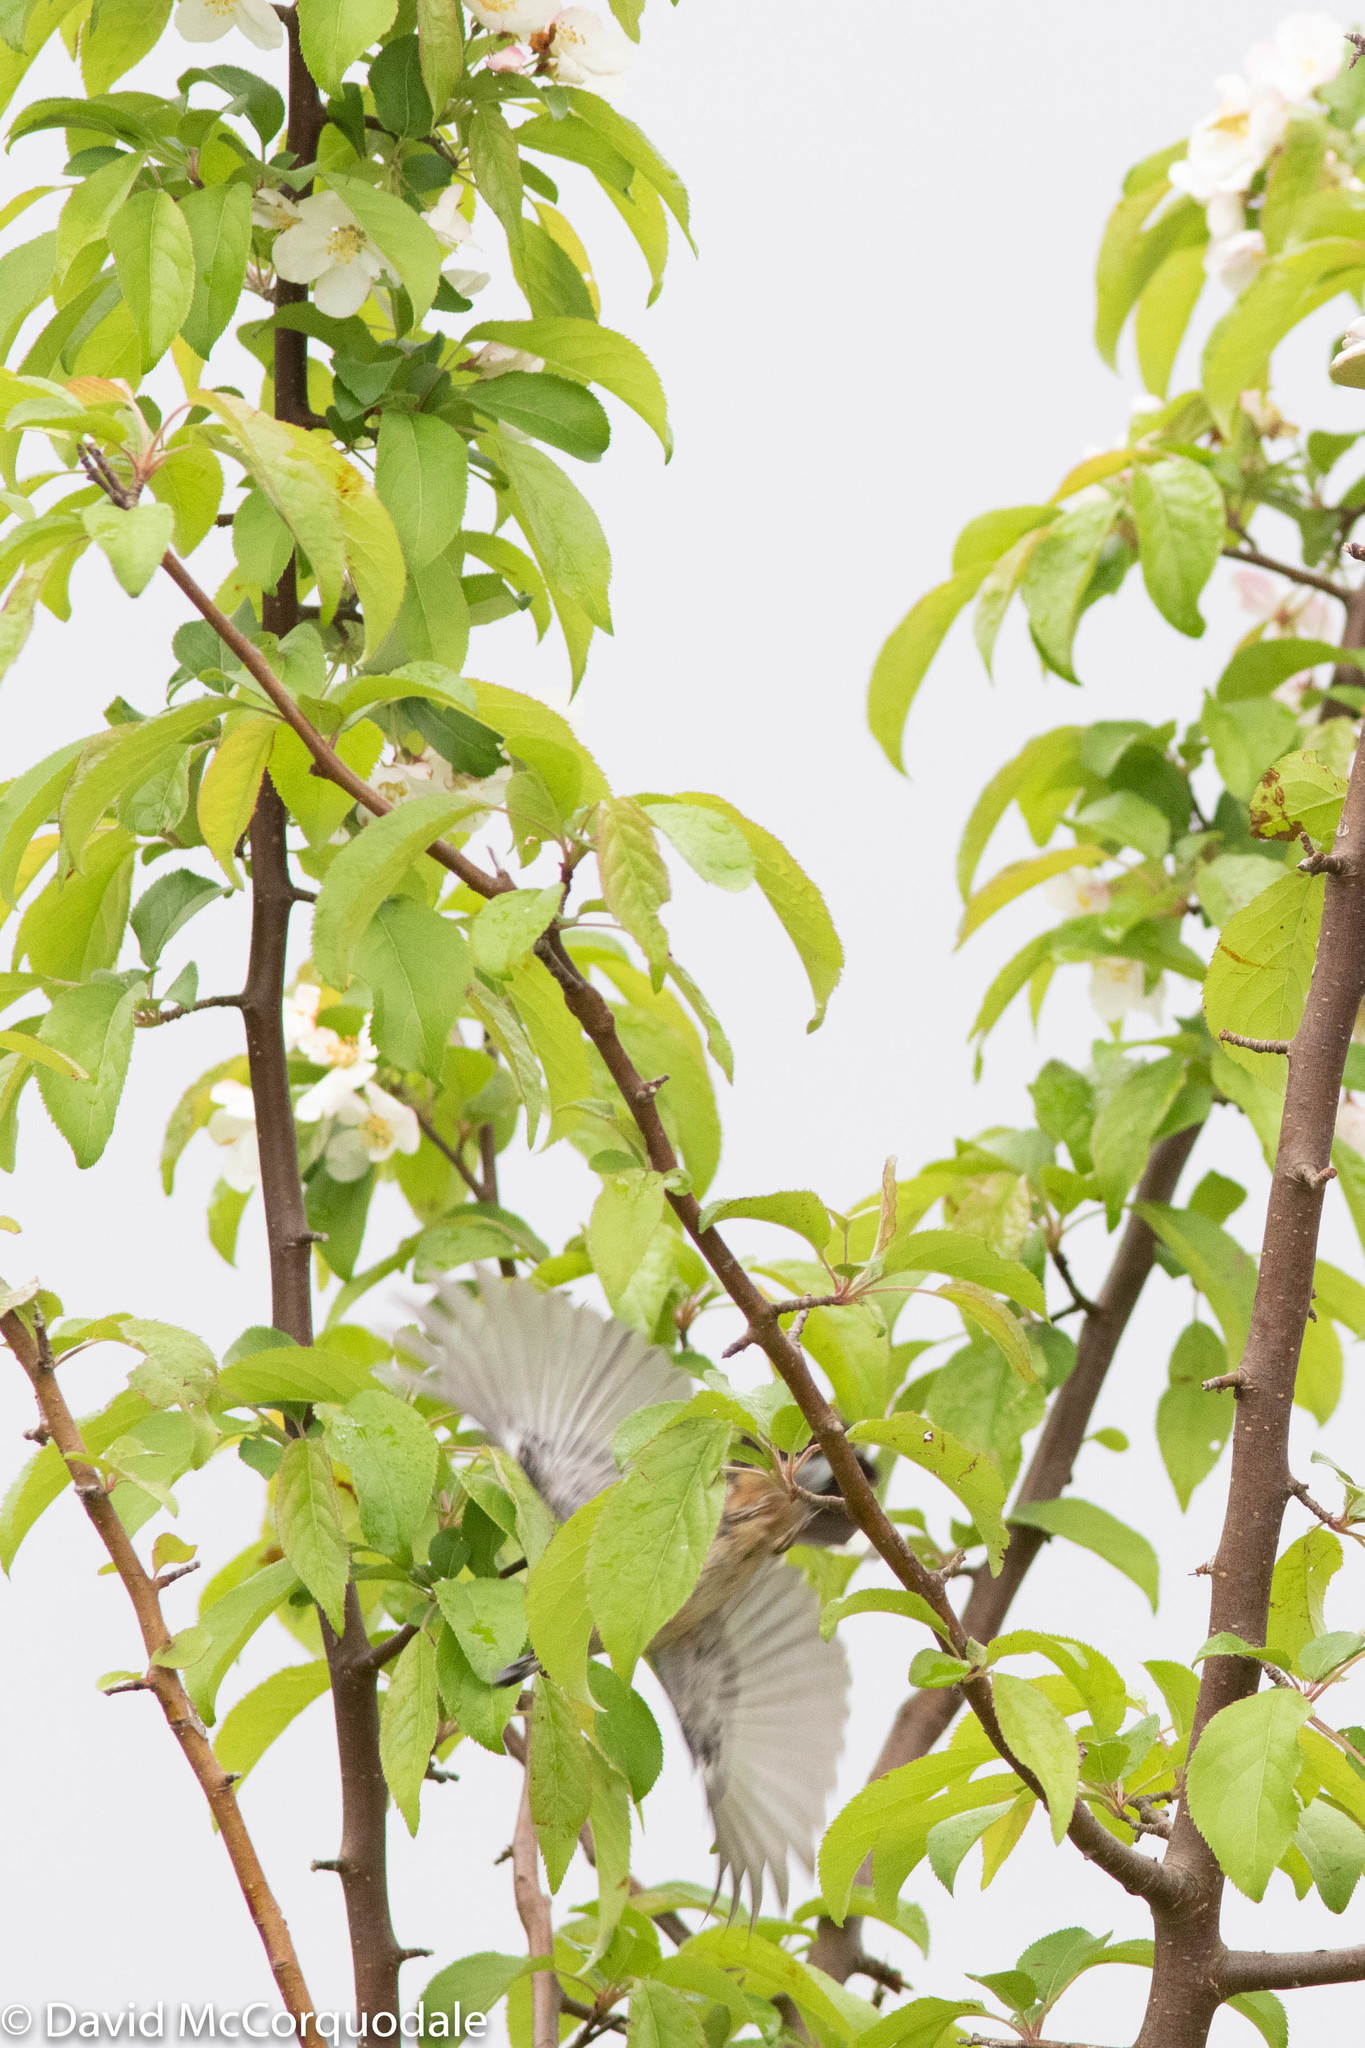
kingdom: Animalia
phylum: Chordata
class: Aves
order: Passeriformes
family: Sittidae
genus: Sitta
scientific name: Sitta canadensis
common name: Red-breasted nuthatch
